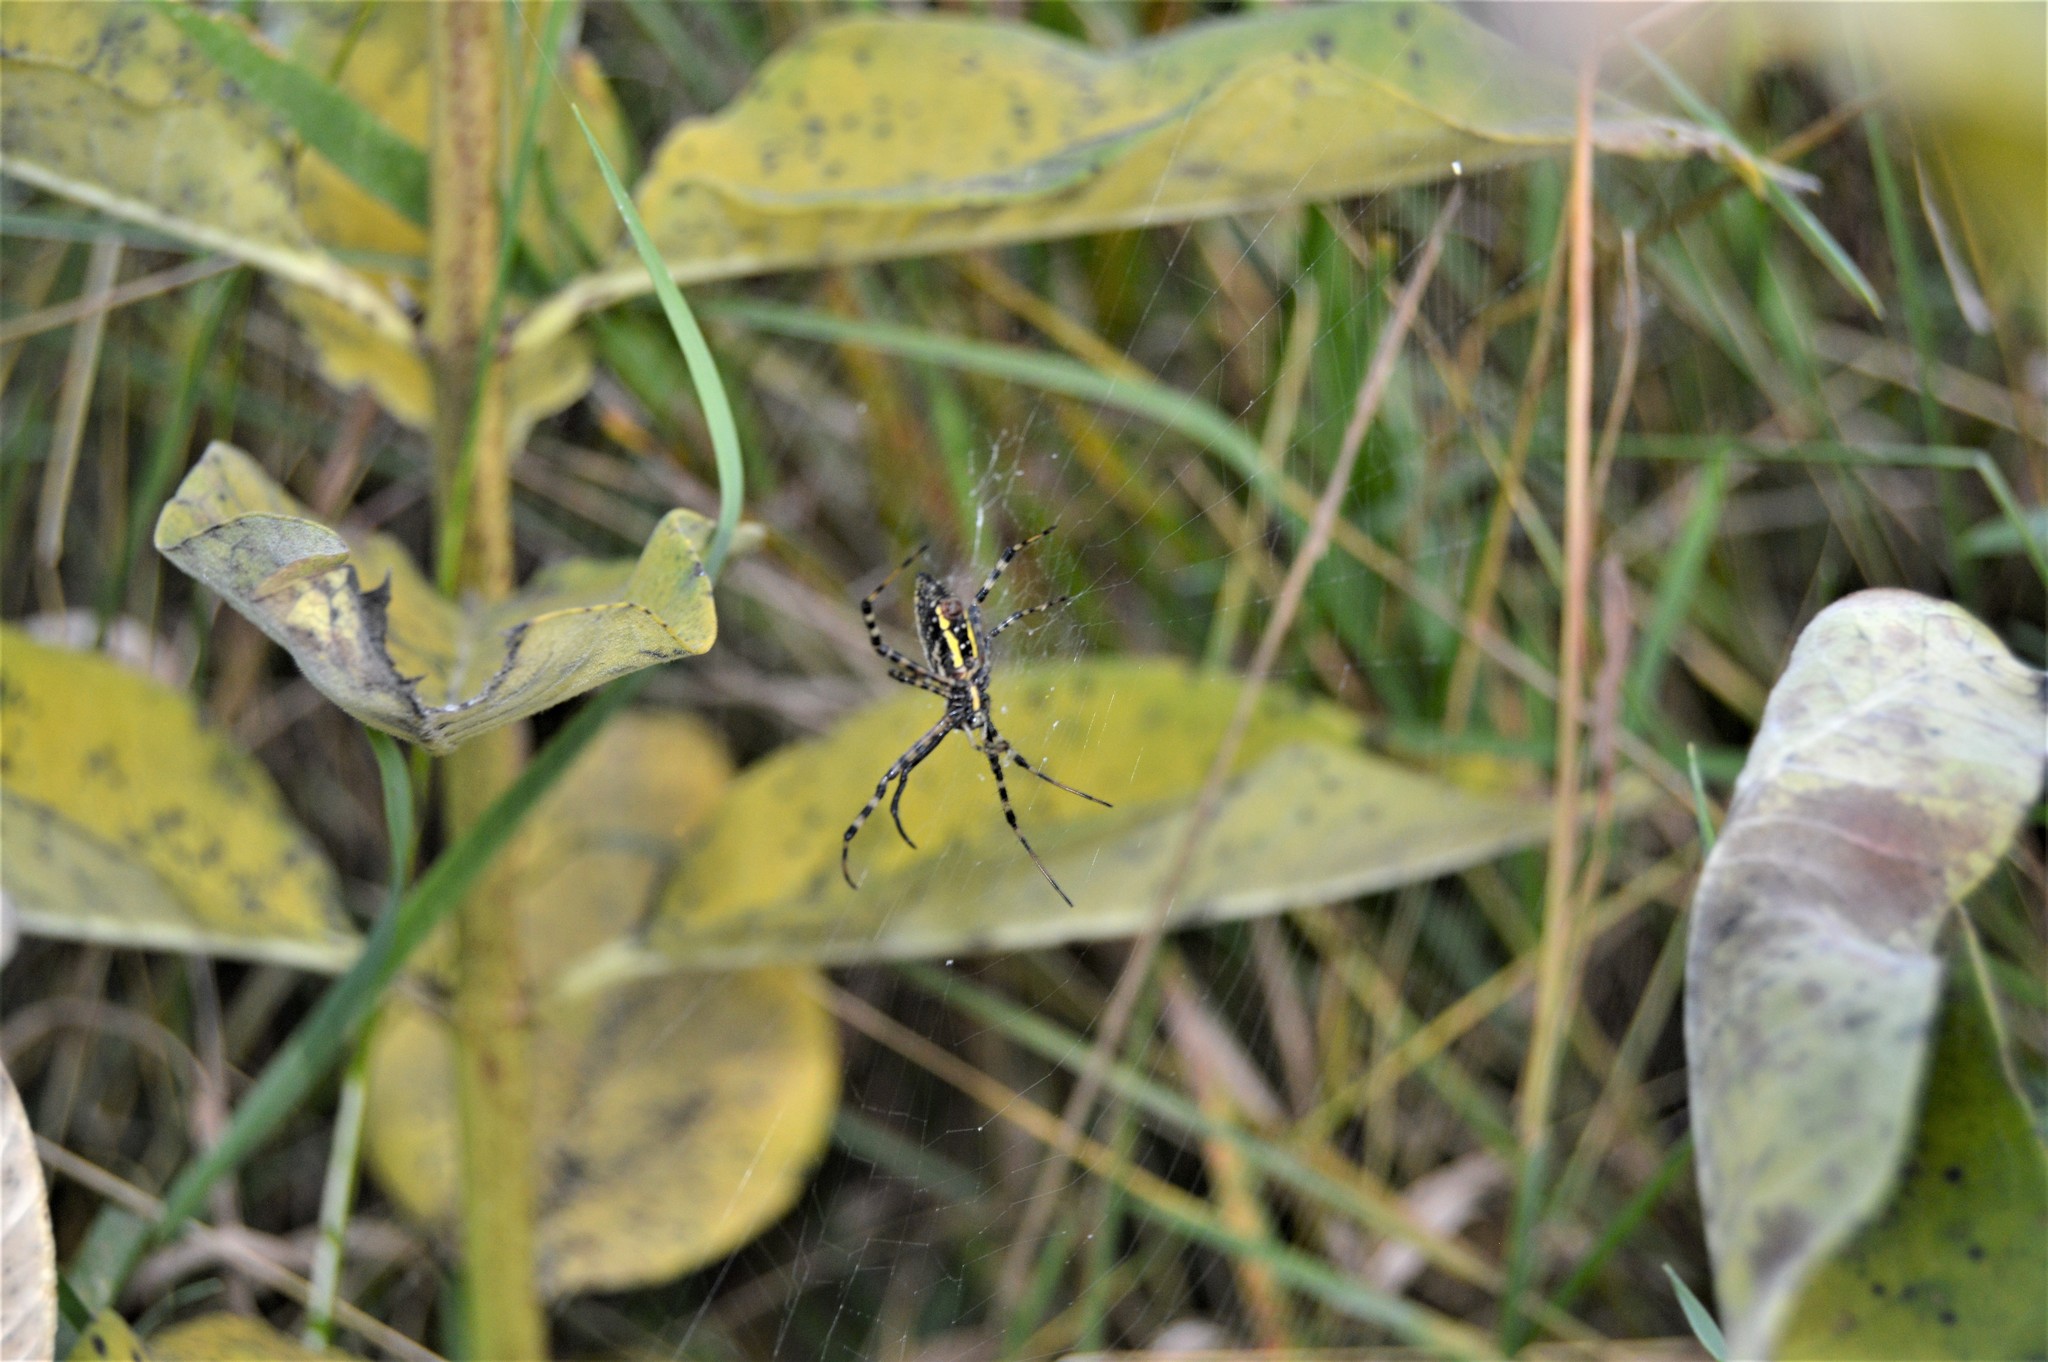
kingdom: Animalia
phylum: Arthropoda
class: Arachnida
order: Araneae
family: Araneidae
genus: Argiope
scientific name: Argiope trifasciata
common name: Banded garden spider
